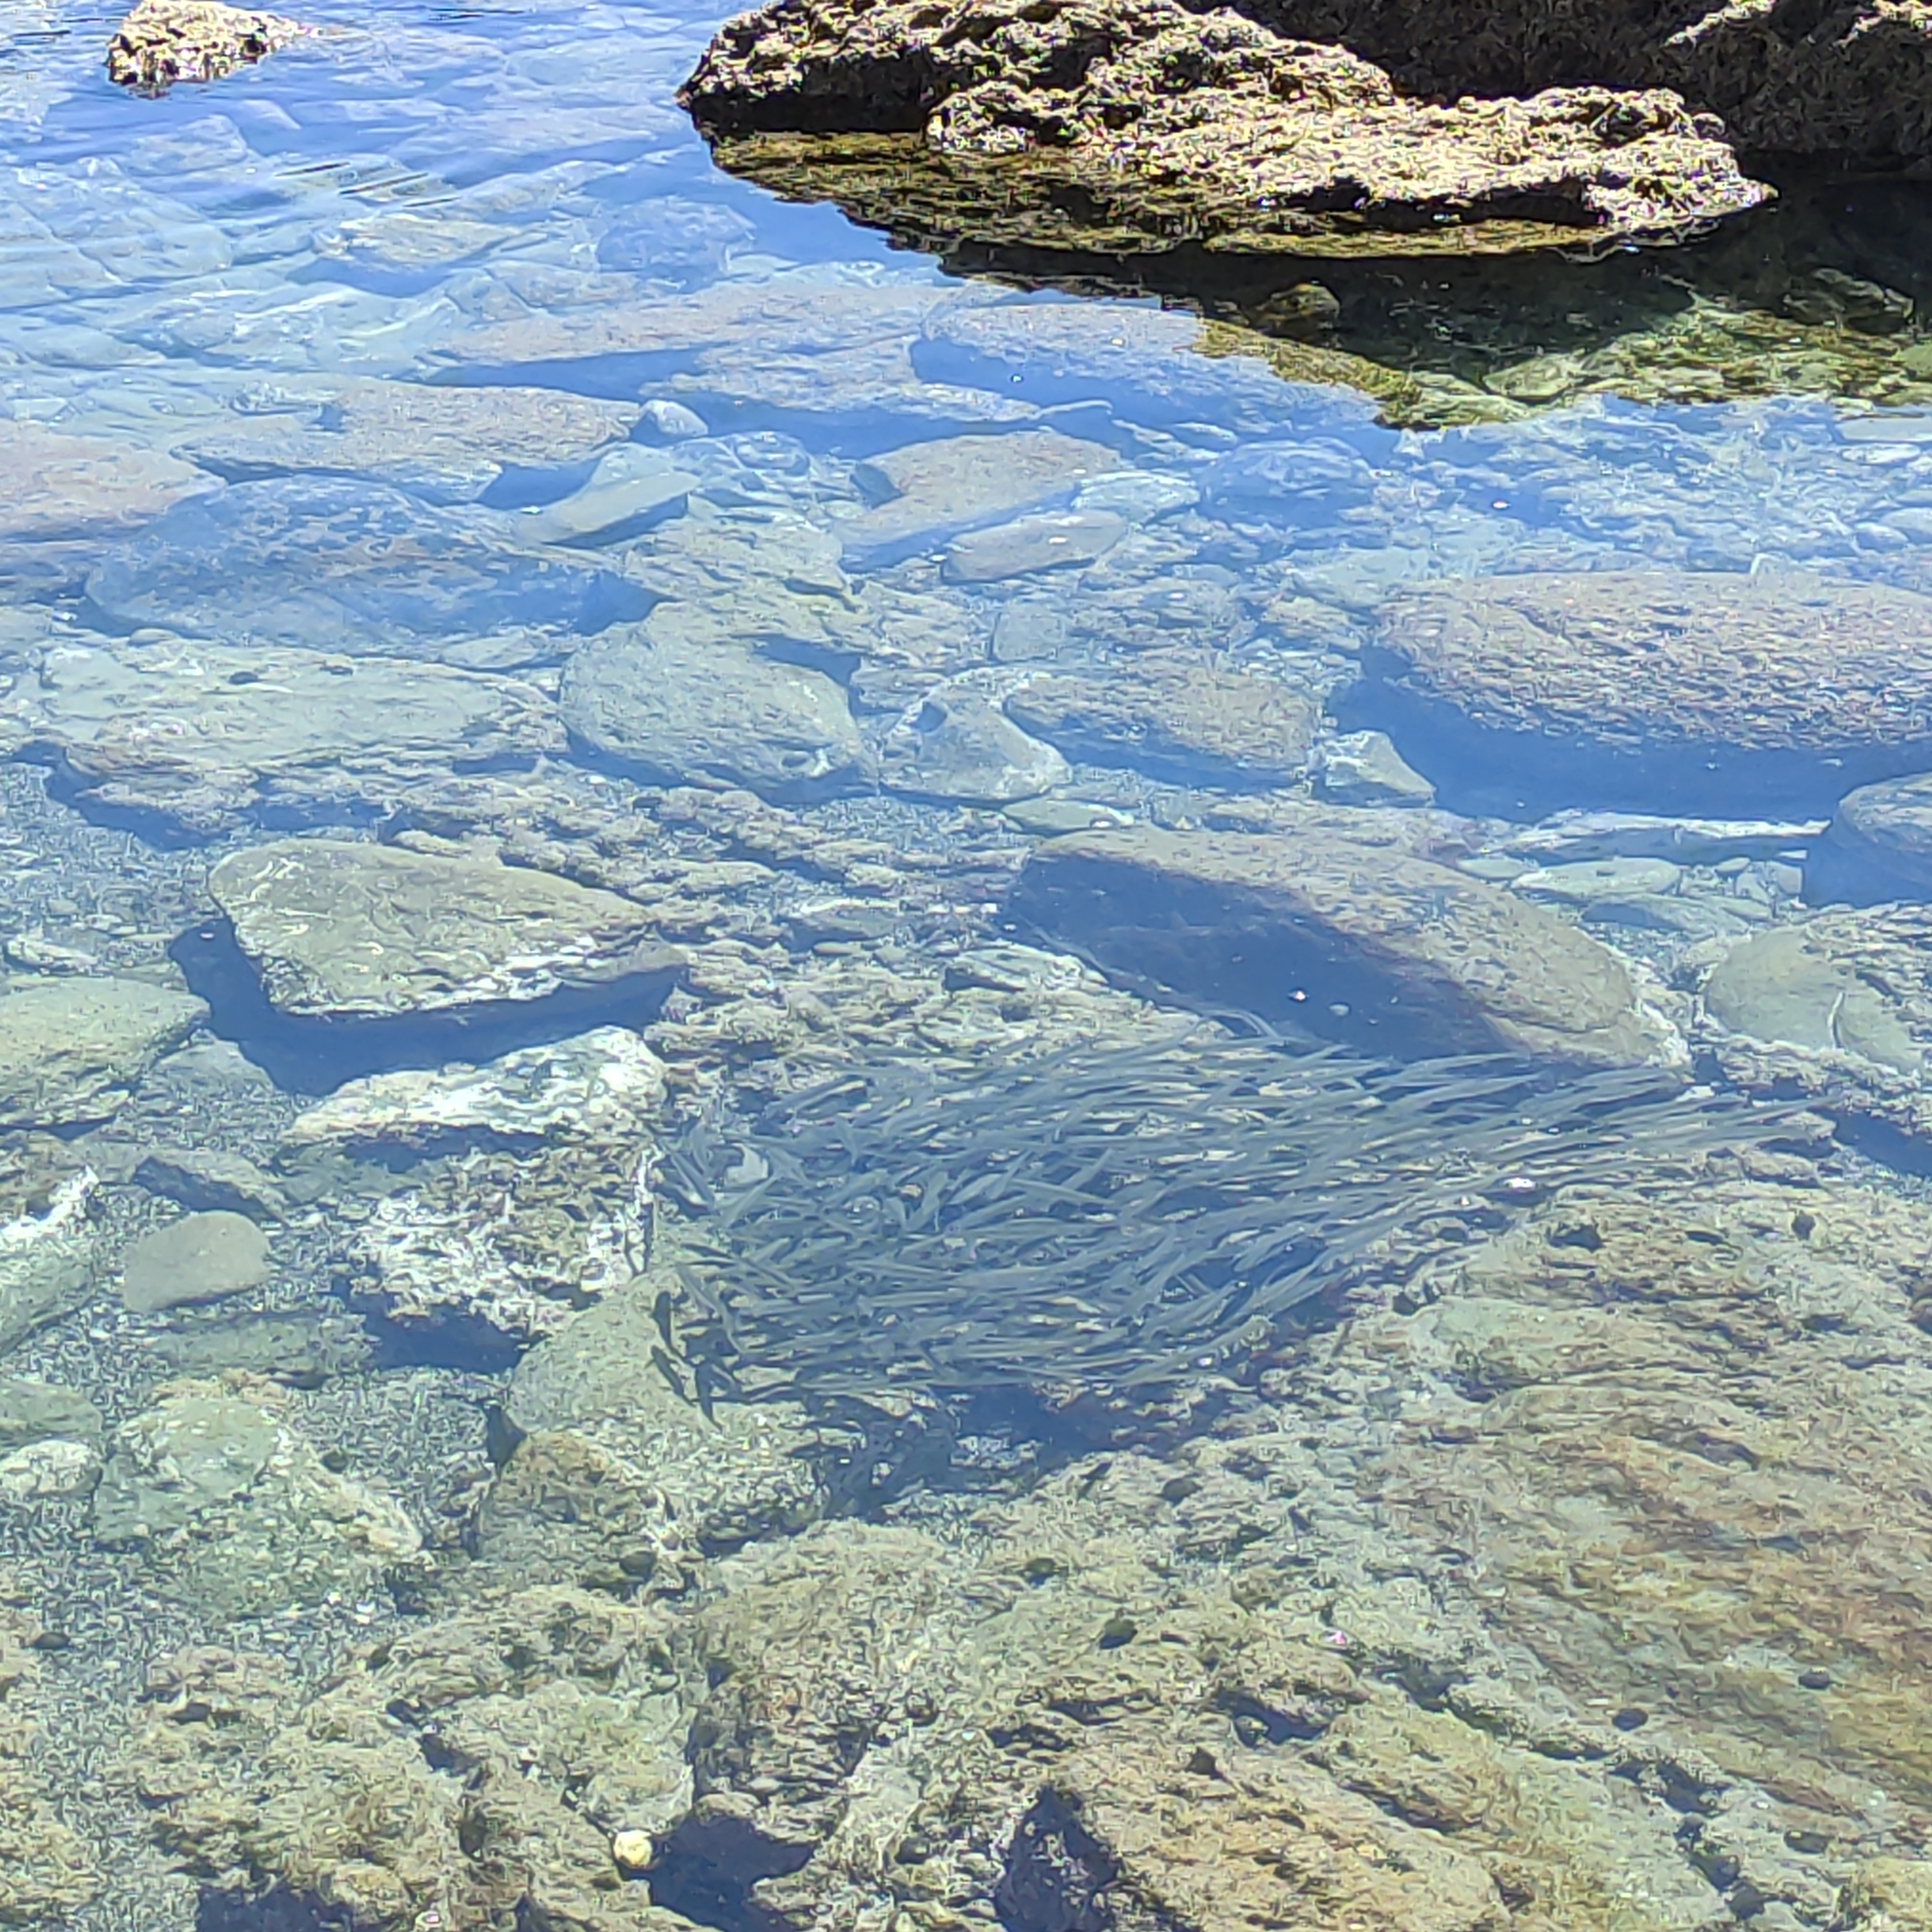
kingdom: Animalia
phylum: Chordata
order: Mugiliformes
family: Mugilidae
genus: Aldrichetta
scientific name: Aldrichetta forsteri
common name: Yellow-eye mullet
